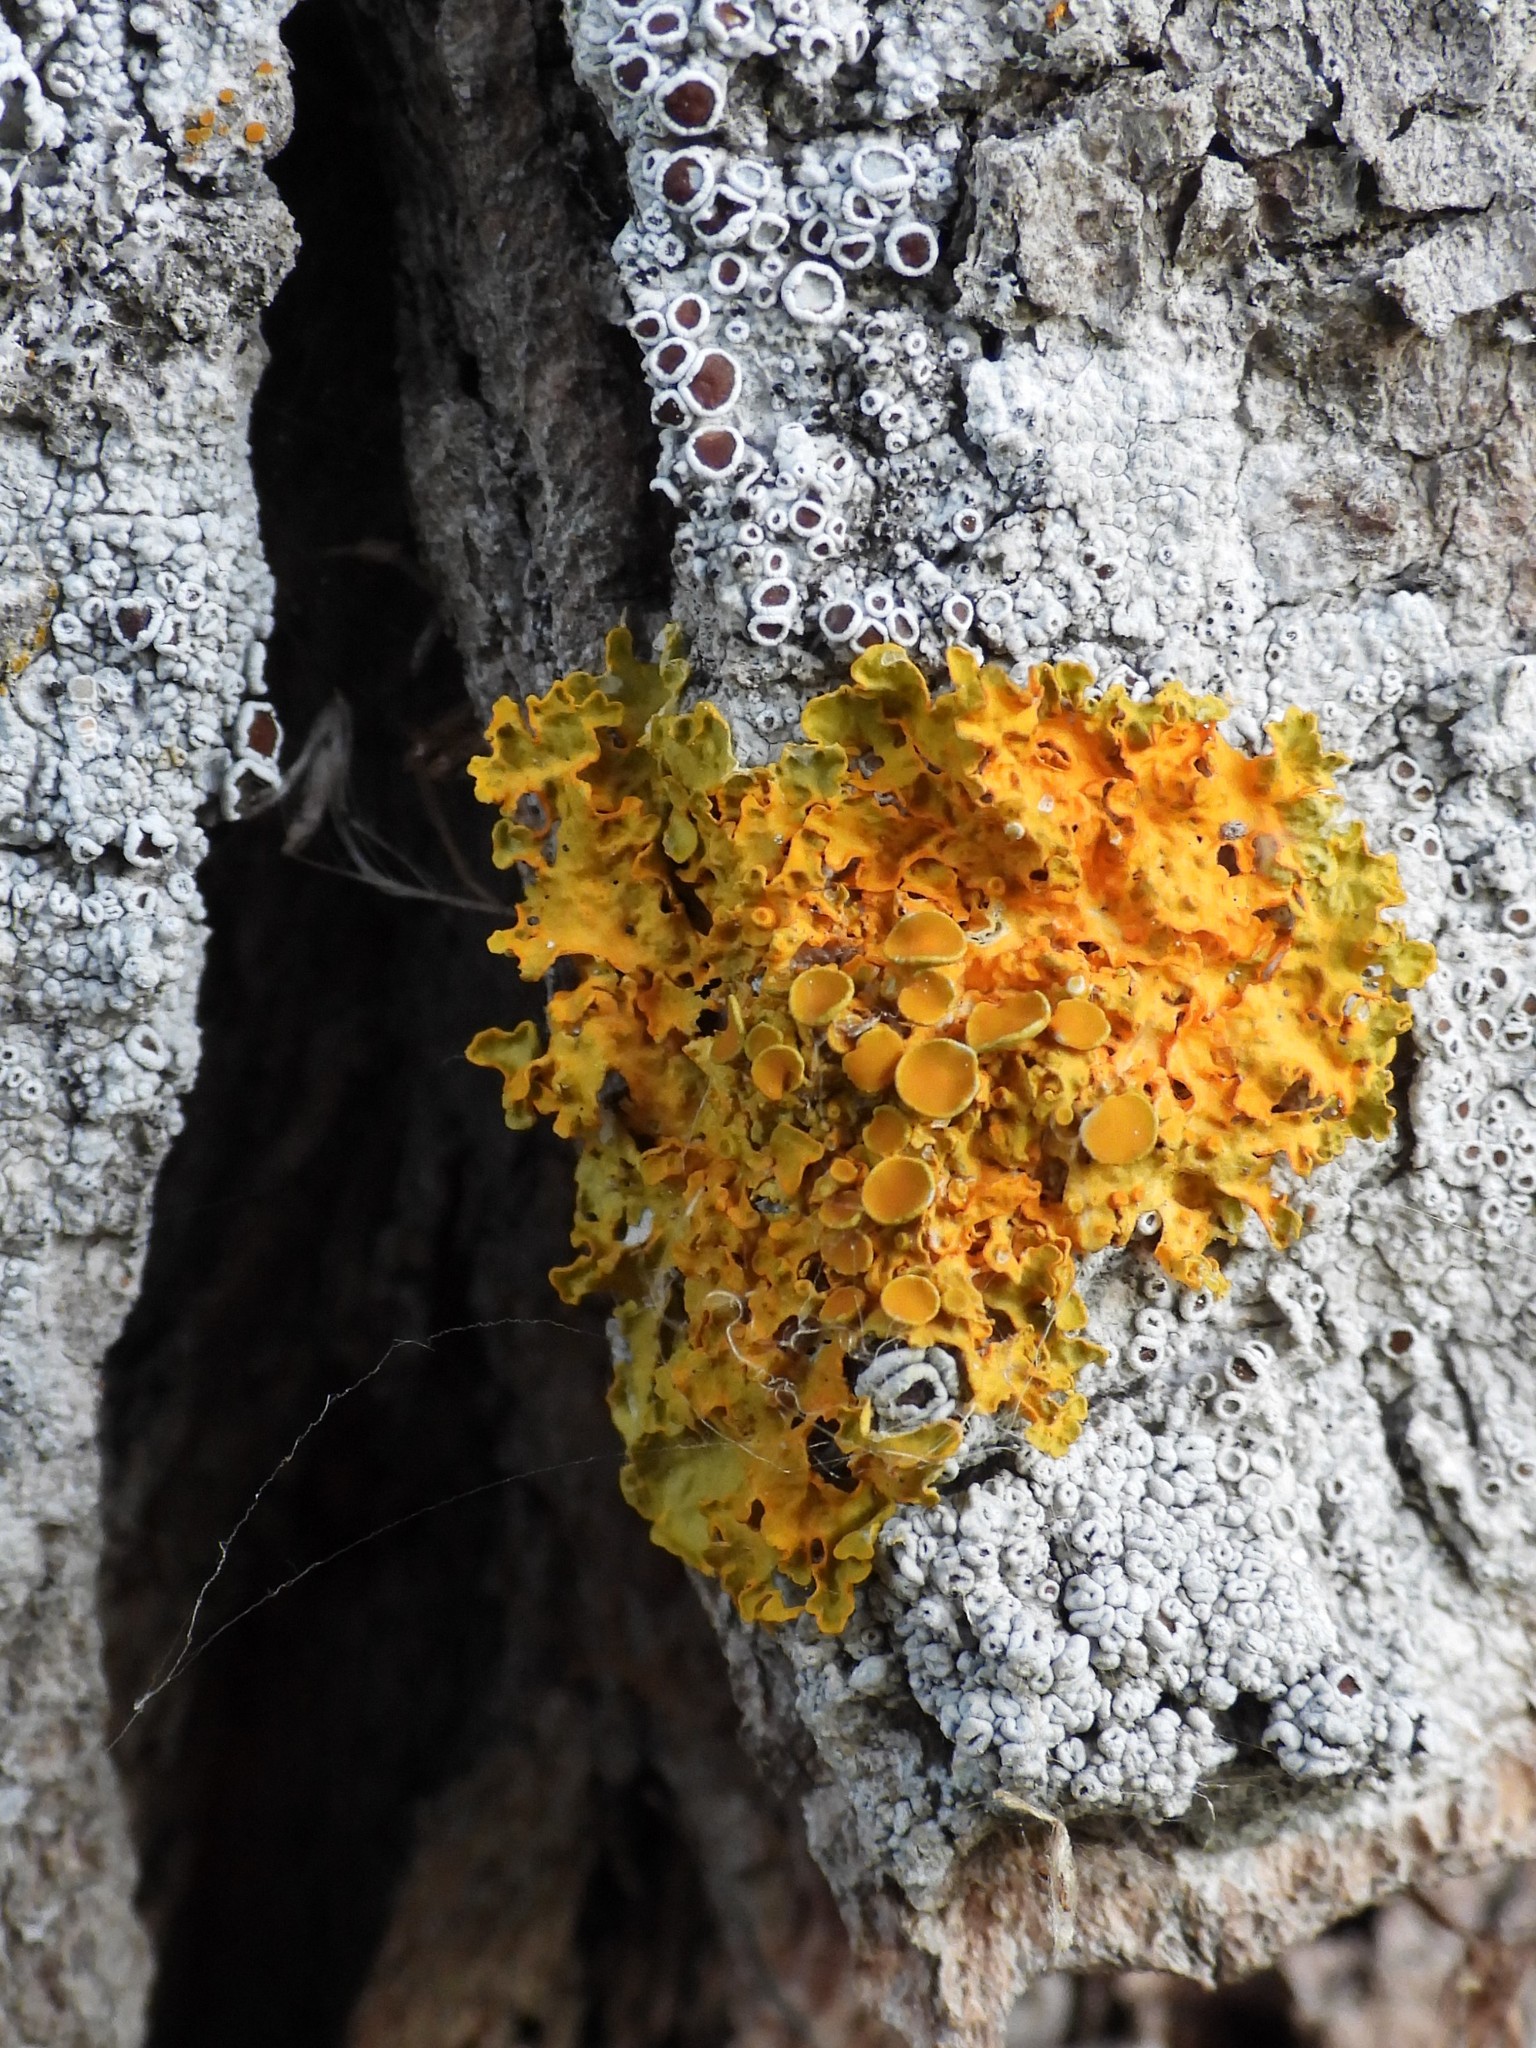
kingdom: Fungi
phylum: Ascomycota
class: Lecanoromycetes
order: Teloschistales
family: Teloschistaceae
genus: Xanthoria
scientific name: Xanthoria parietina
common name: Common orange lichen
